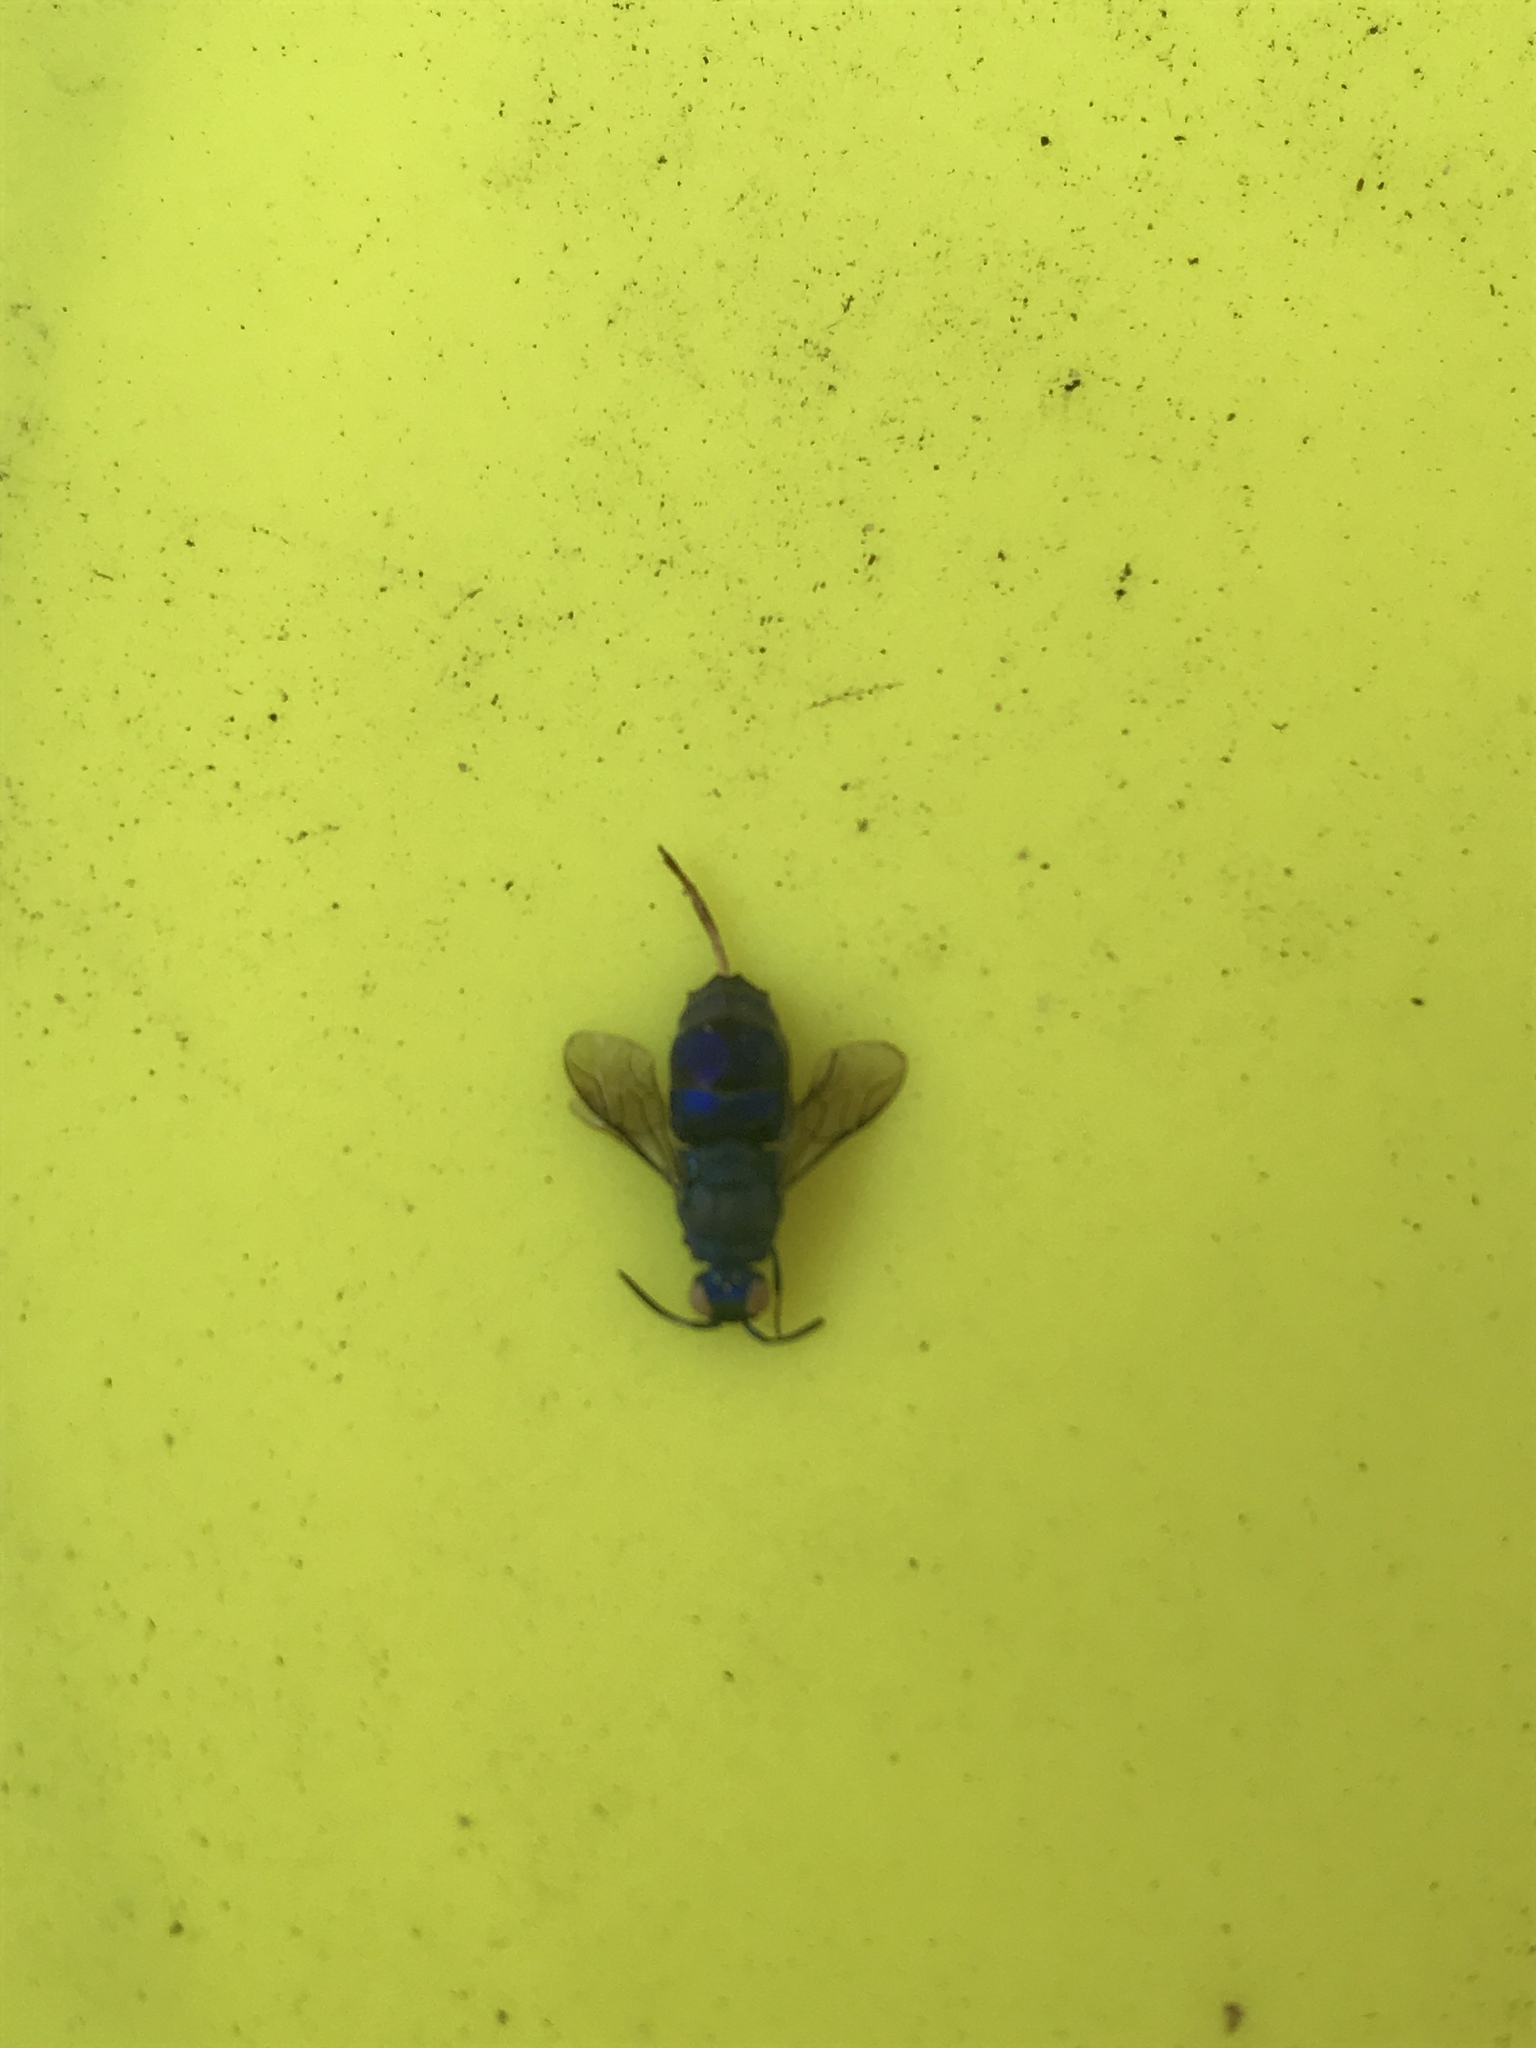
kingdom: Animalia
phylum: Arthropoda
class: Insecta
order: Hymenoptera
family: Chrysididae
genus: Chrysis
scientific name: Chrysis conica
